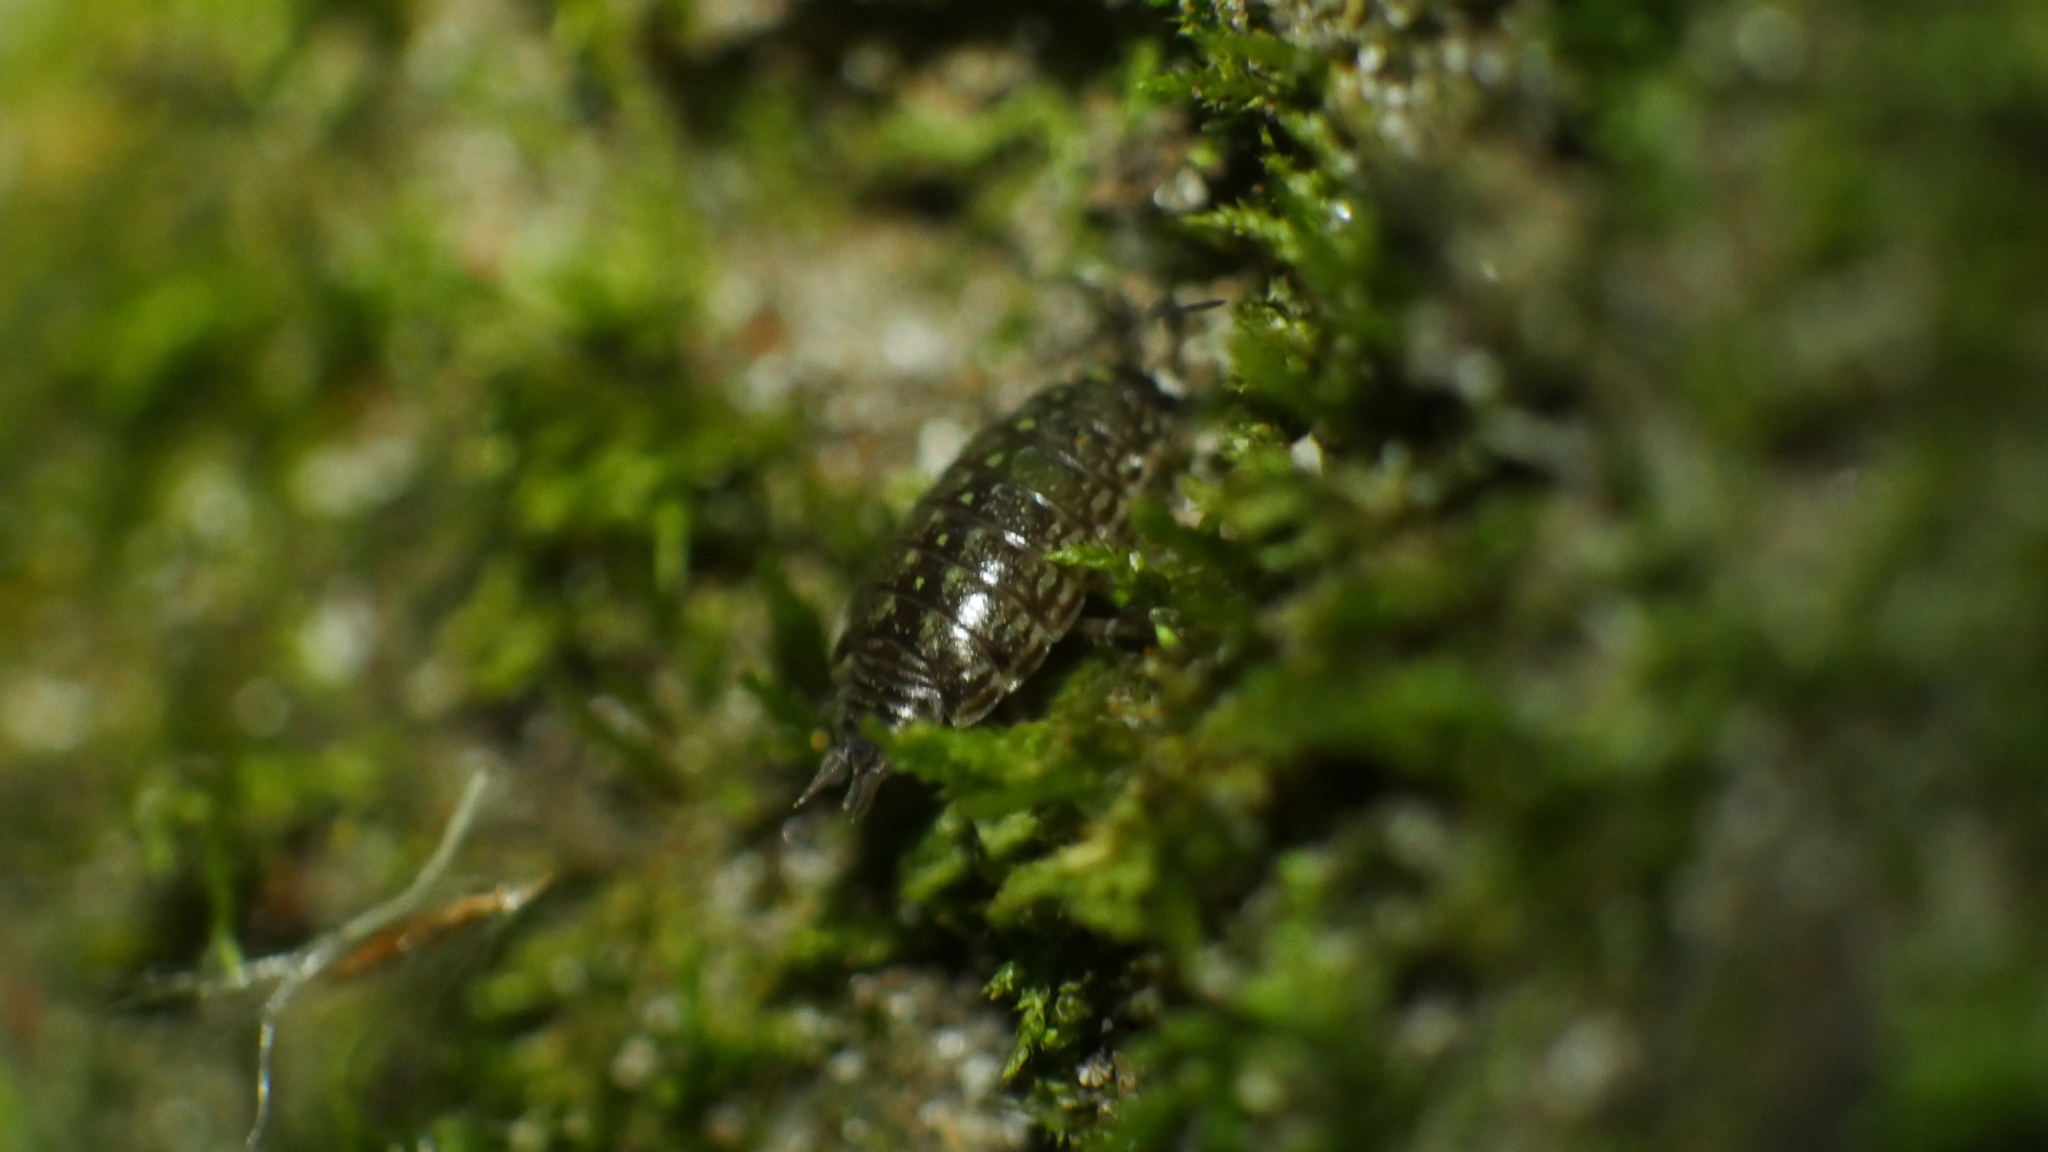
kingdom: Animalia
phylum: Arthropoda
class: Malacostraca
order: Isopoda
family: Philosciidae
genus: Philoscia
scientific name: Philoscia muscorum
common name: Common striped woodlouse
